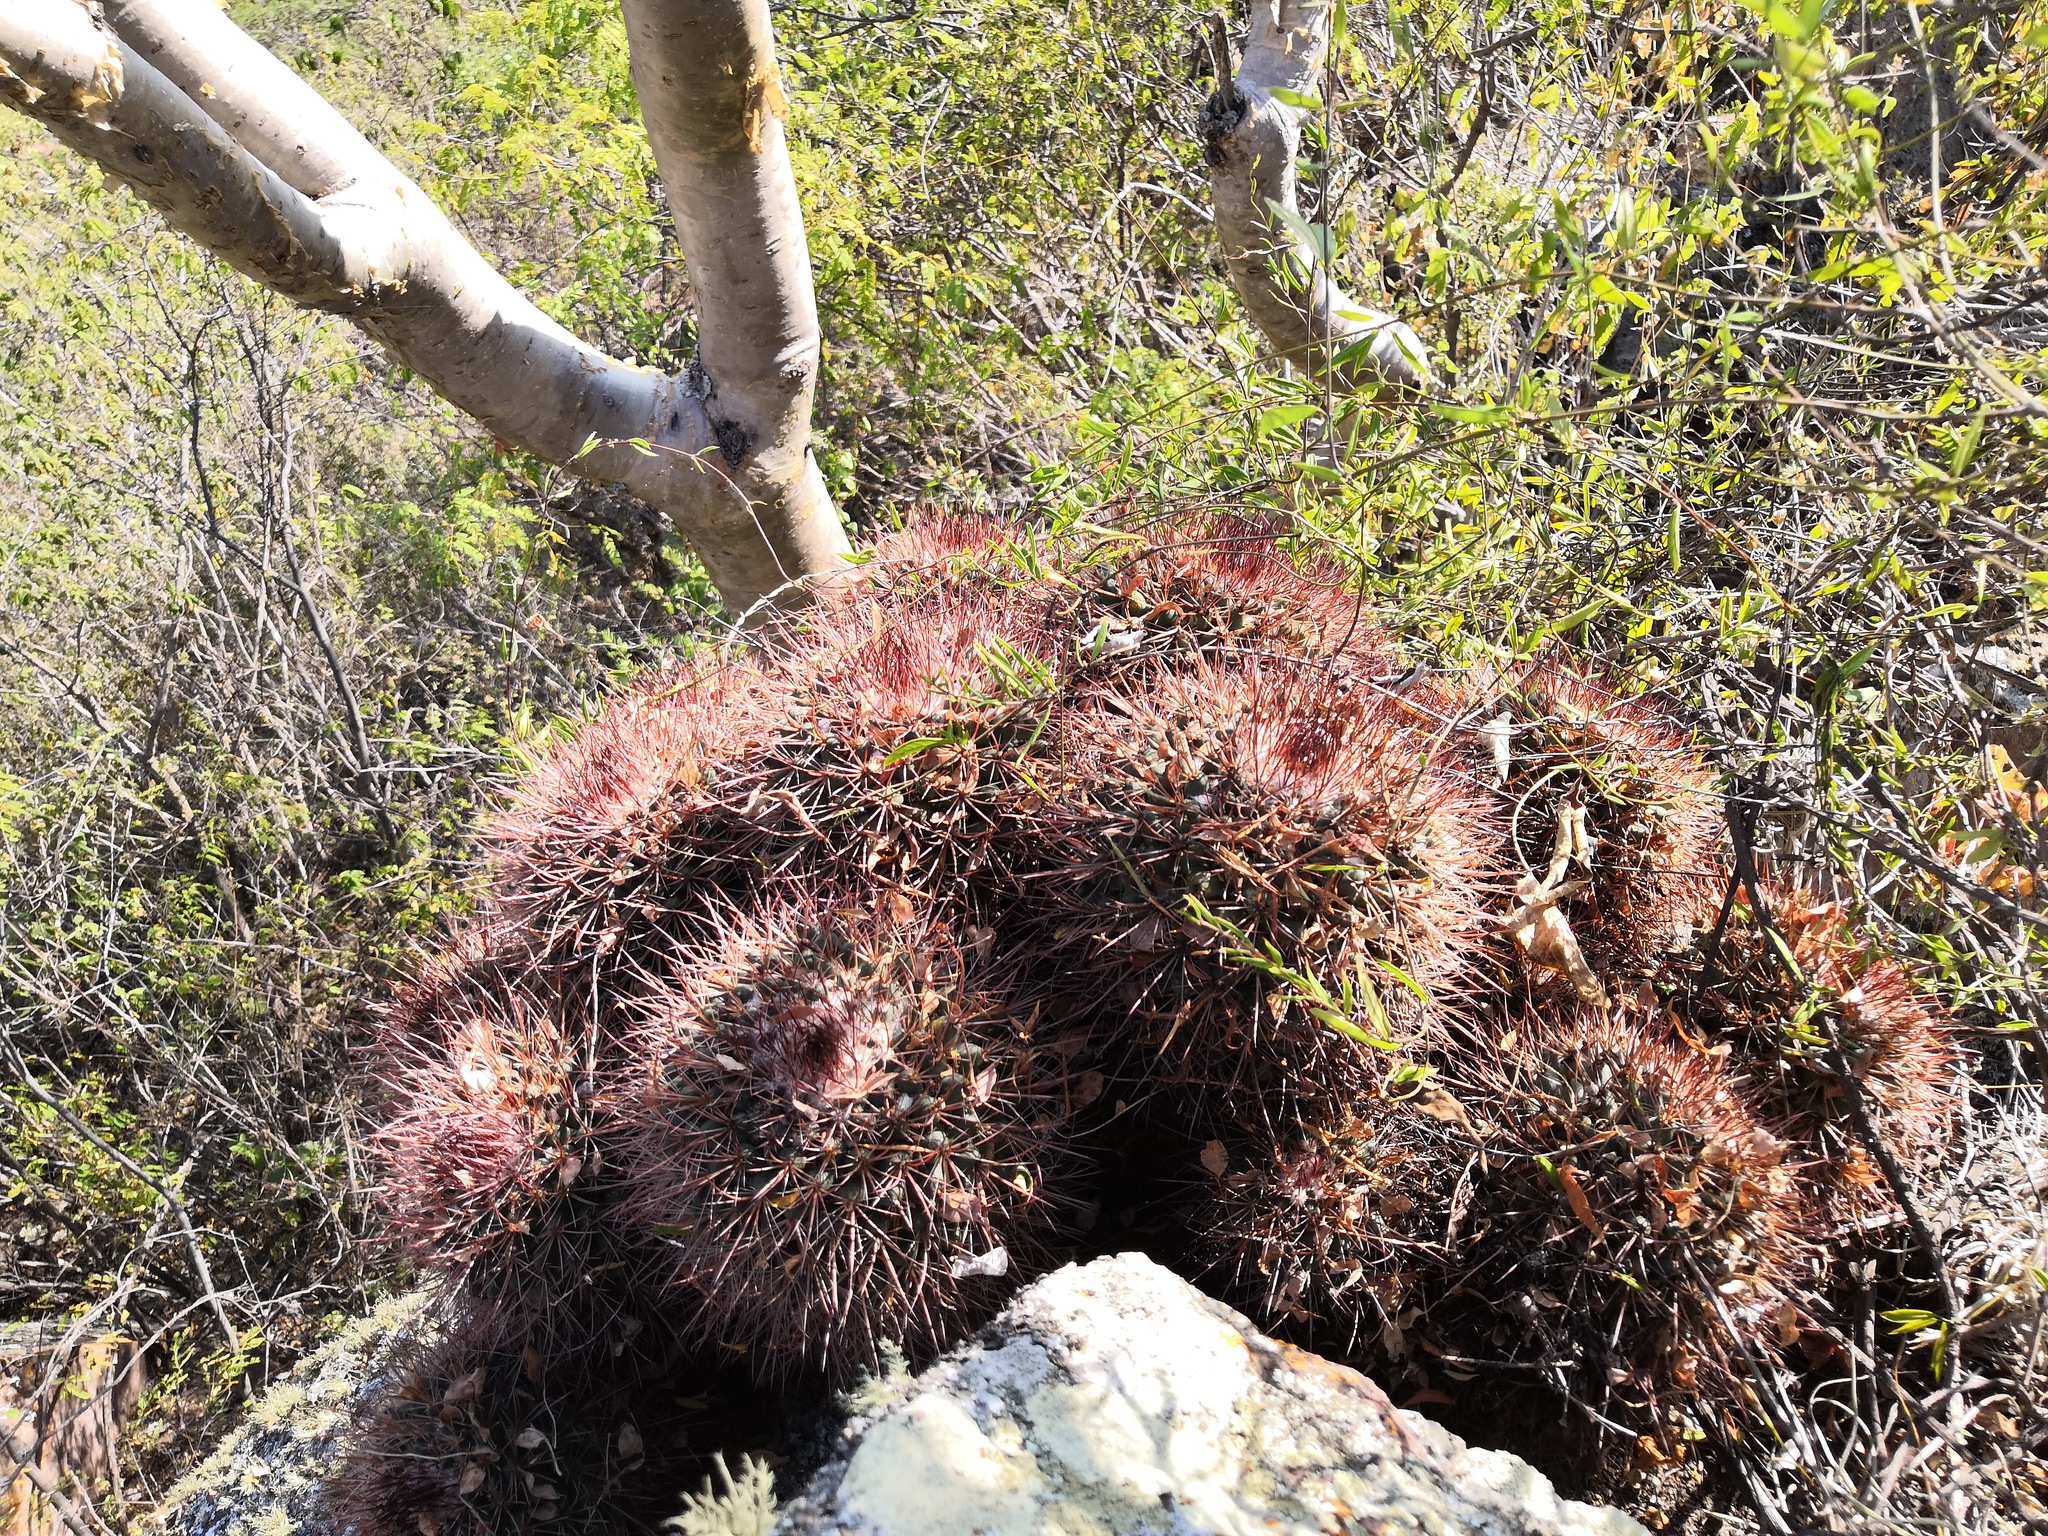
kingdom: Plantae
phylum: Tracheophyta
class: Magnoliopsida
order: Caryophyllales
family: Cactaceae
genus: Mammillaria
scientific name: Mammillaria petterssonii
